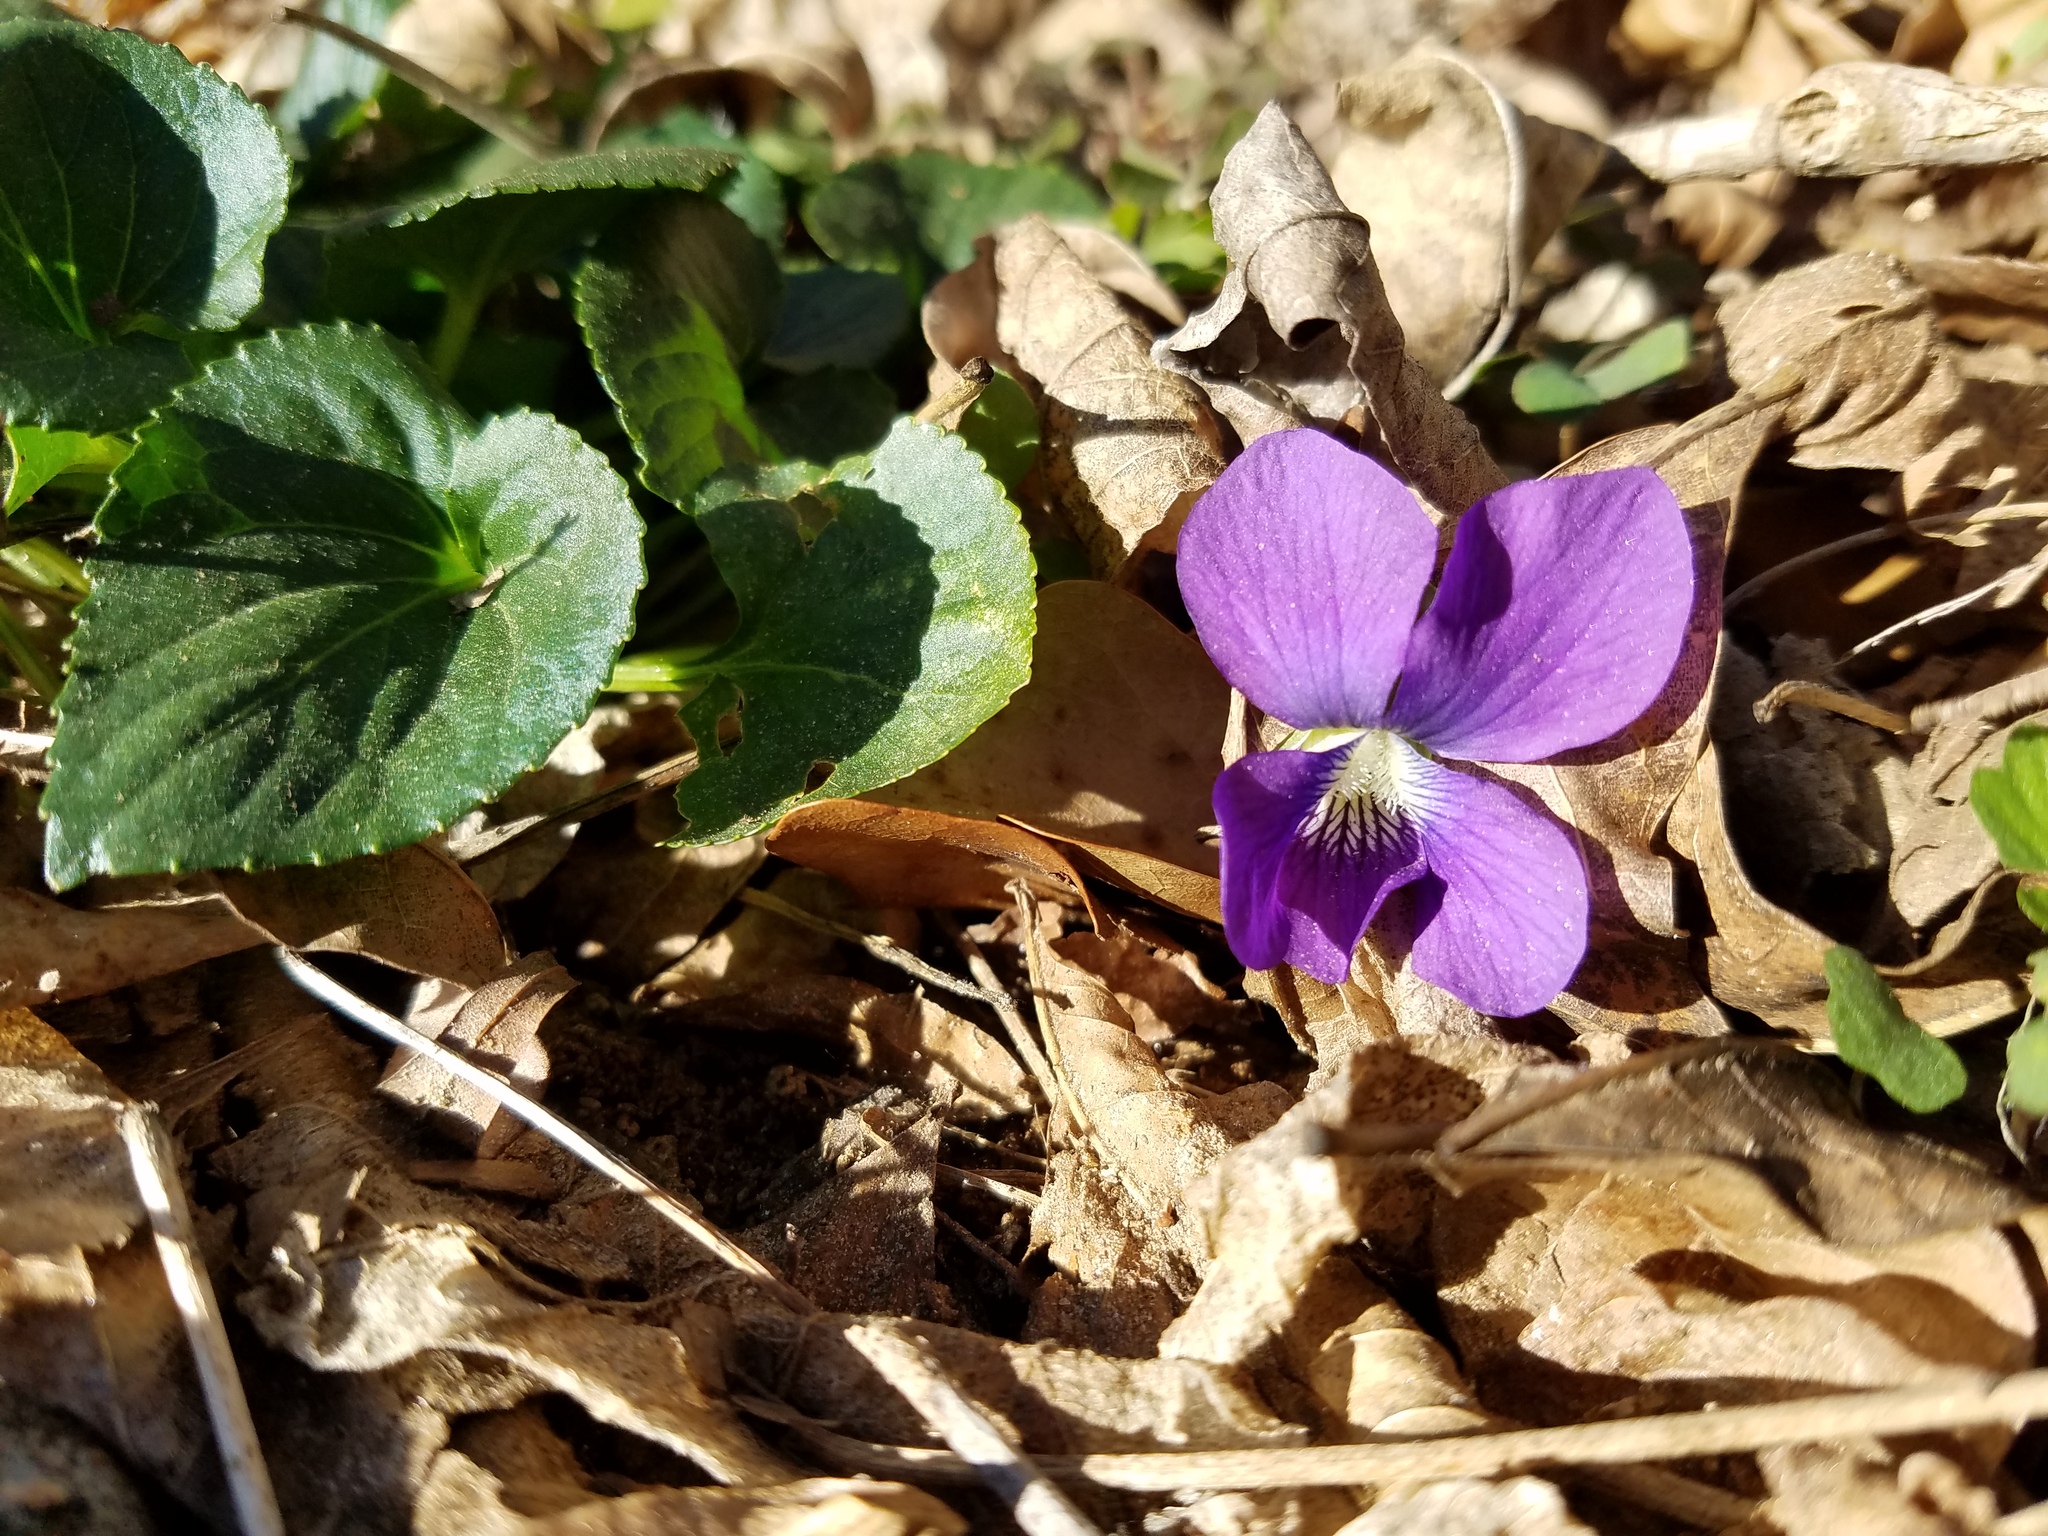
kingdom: Plantae
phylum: Tracheophyta
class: Magnoliopsida
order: Malpighiales
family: Violaceae
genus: Viola
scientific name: Viola sororia
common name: Dooryard violet
